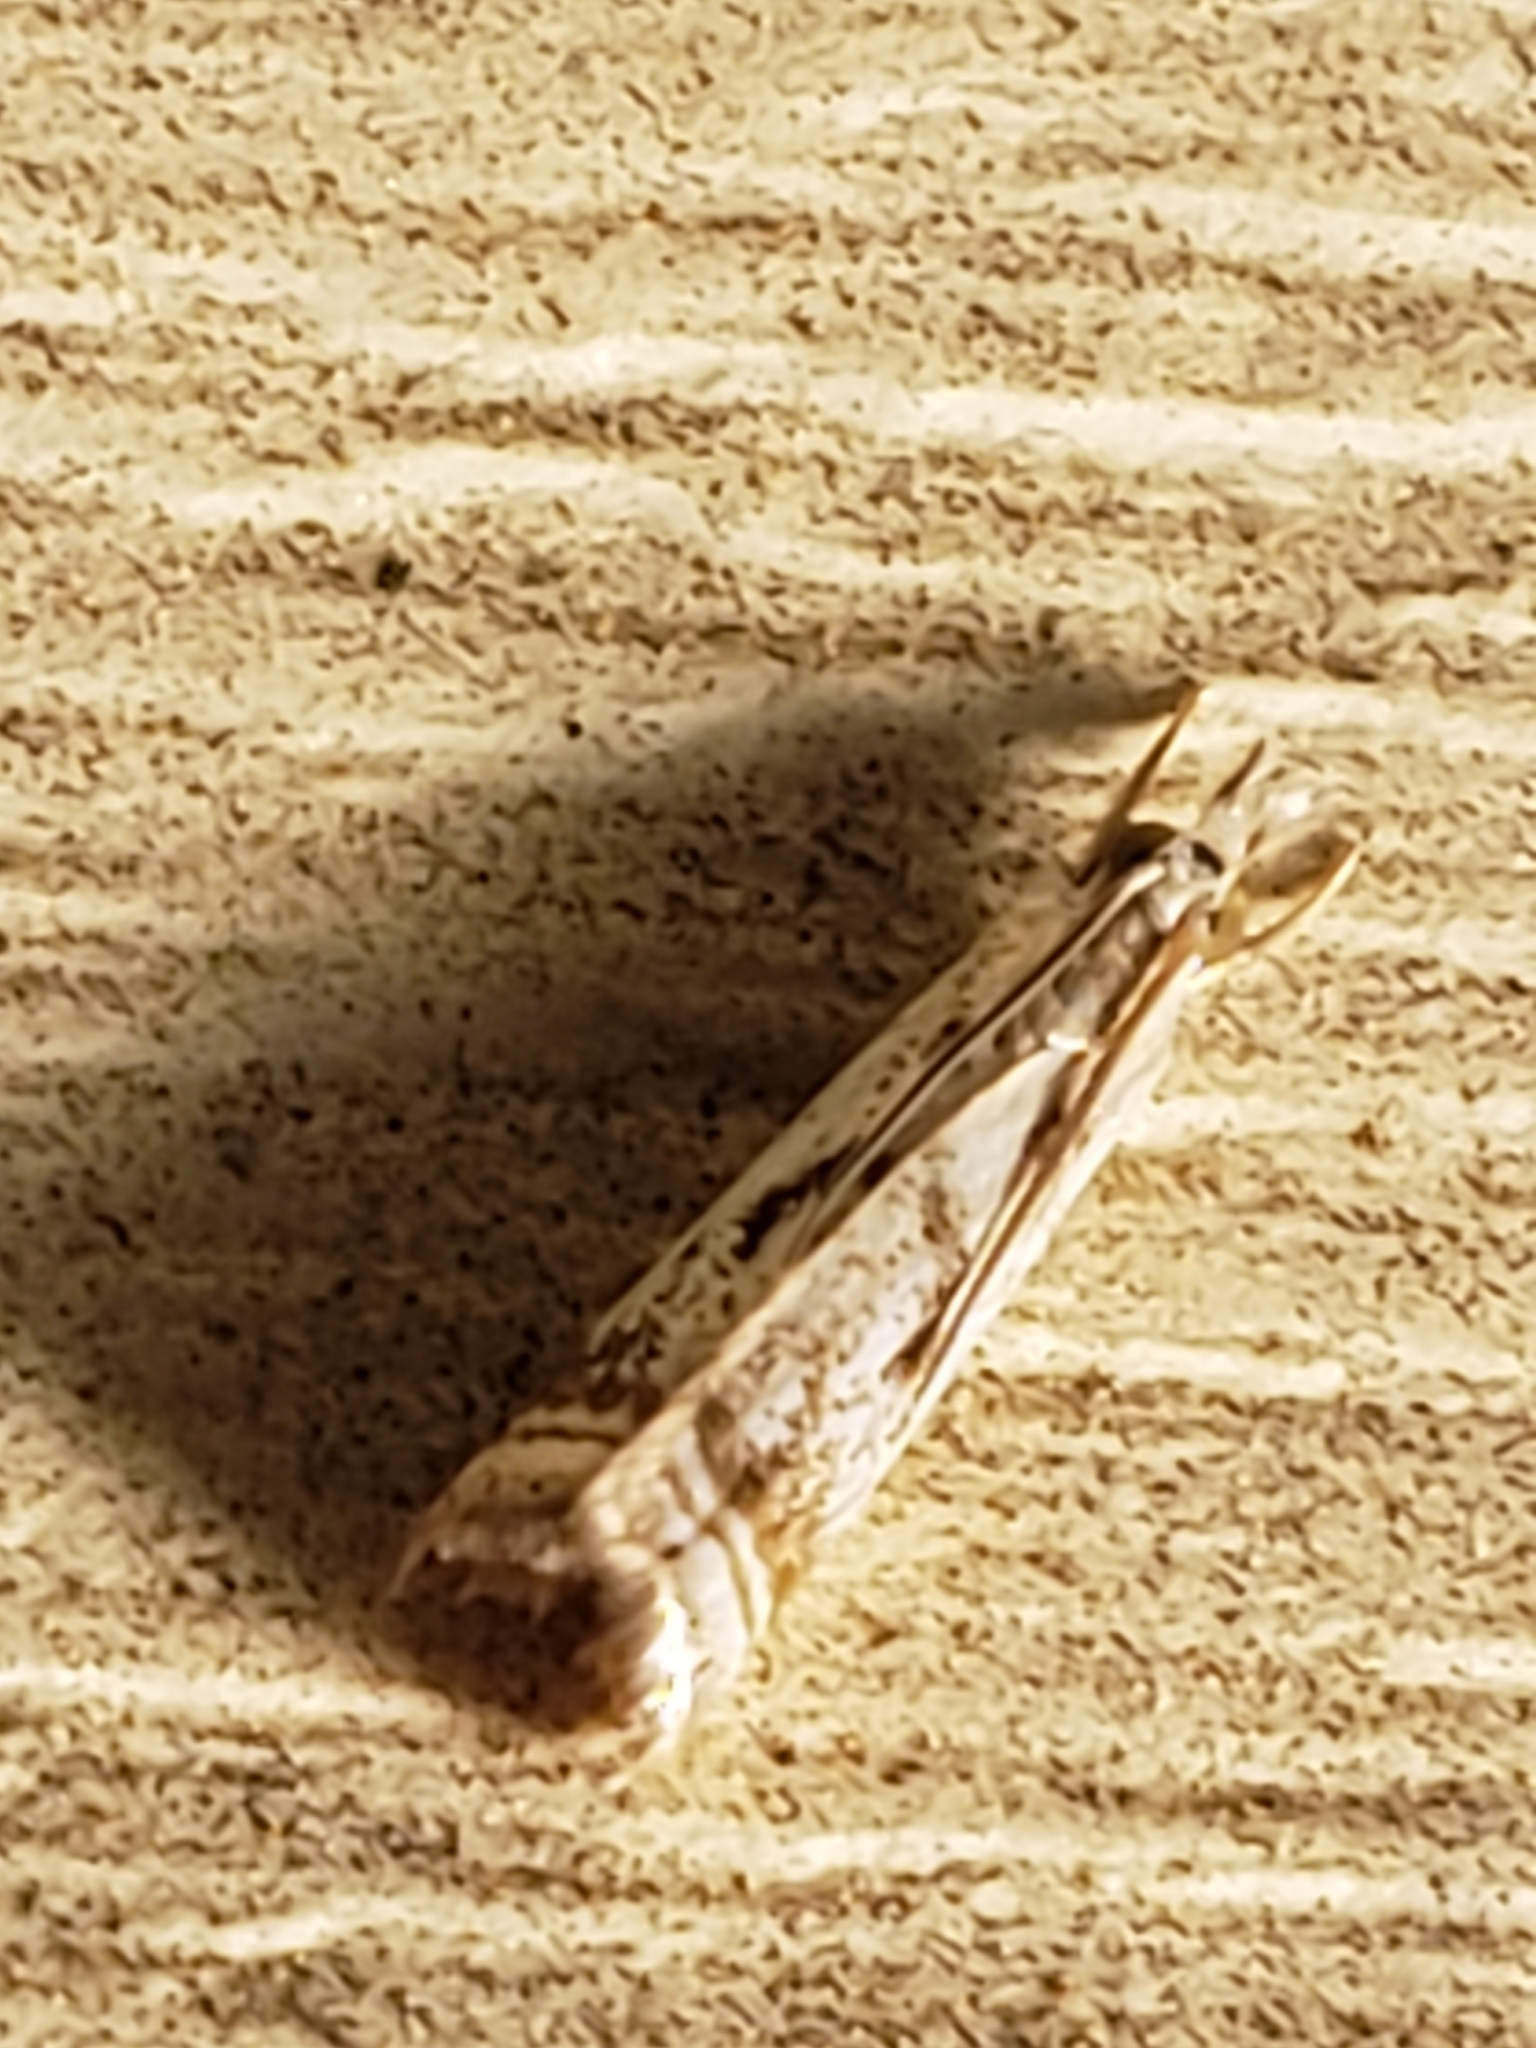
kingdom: Animalia
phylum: Arthropoda
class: Insecta
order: Lepidoptera
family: Crambidae
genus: Microcrambus
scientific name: Microcrambus elegans
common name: Elegant grass-veneer
